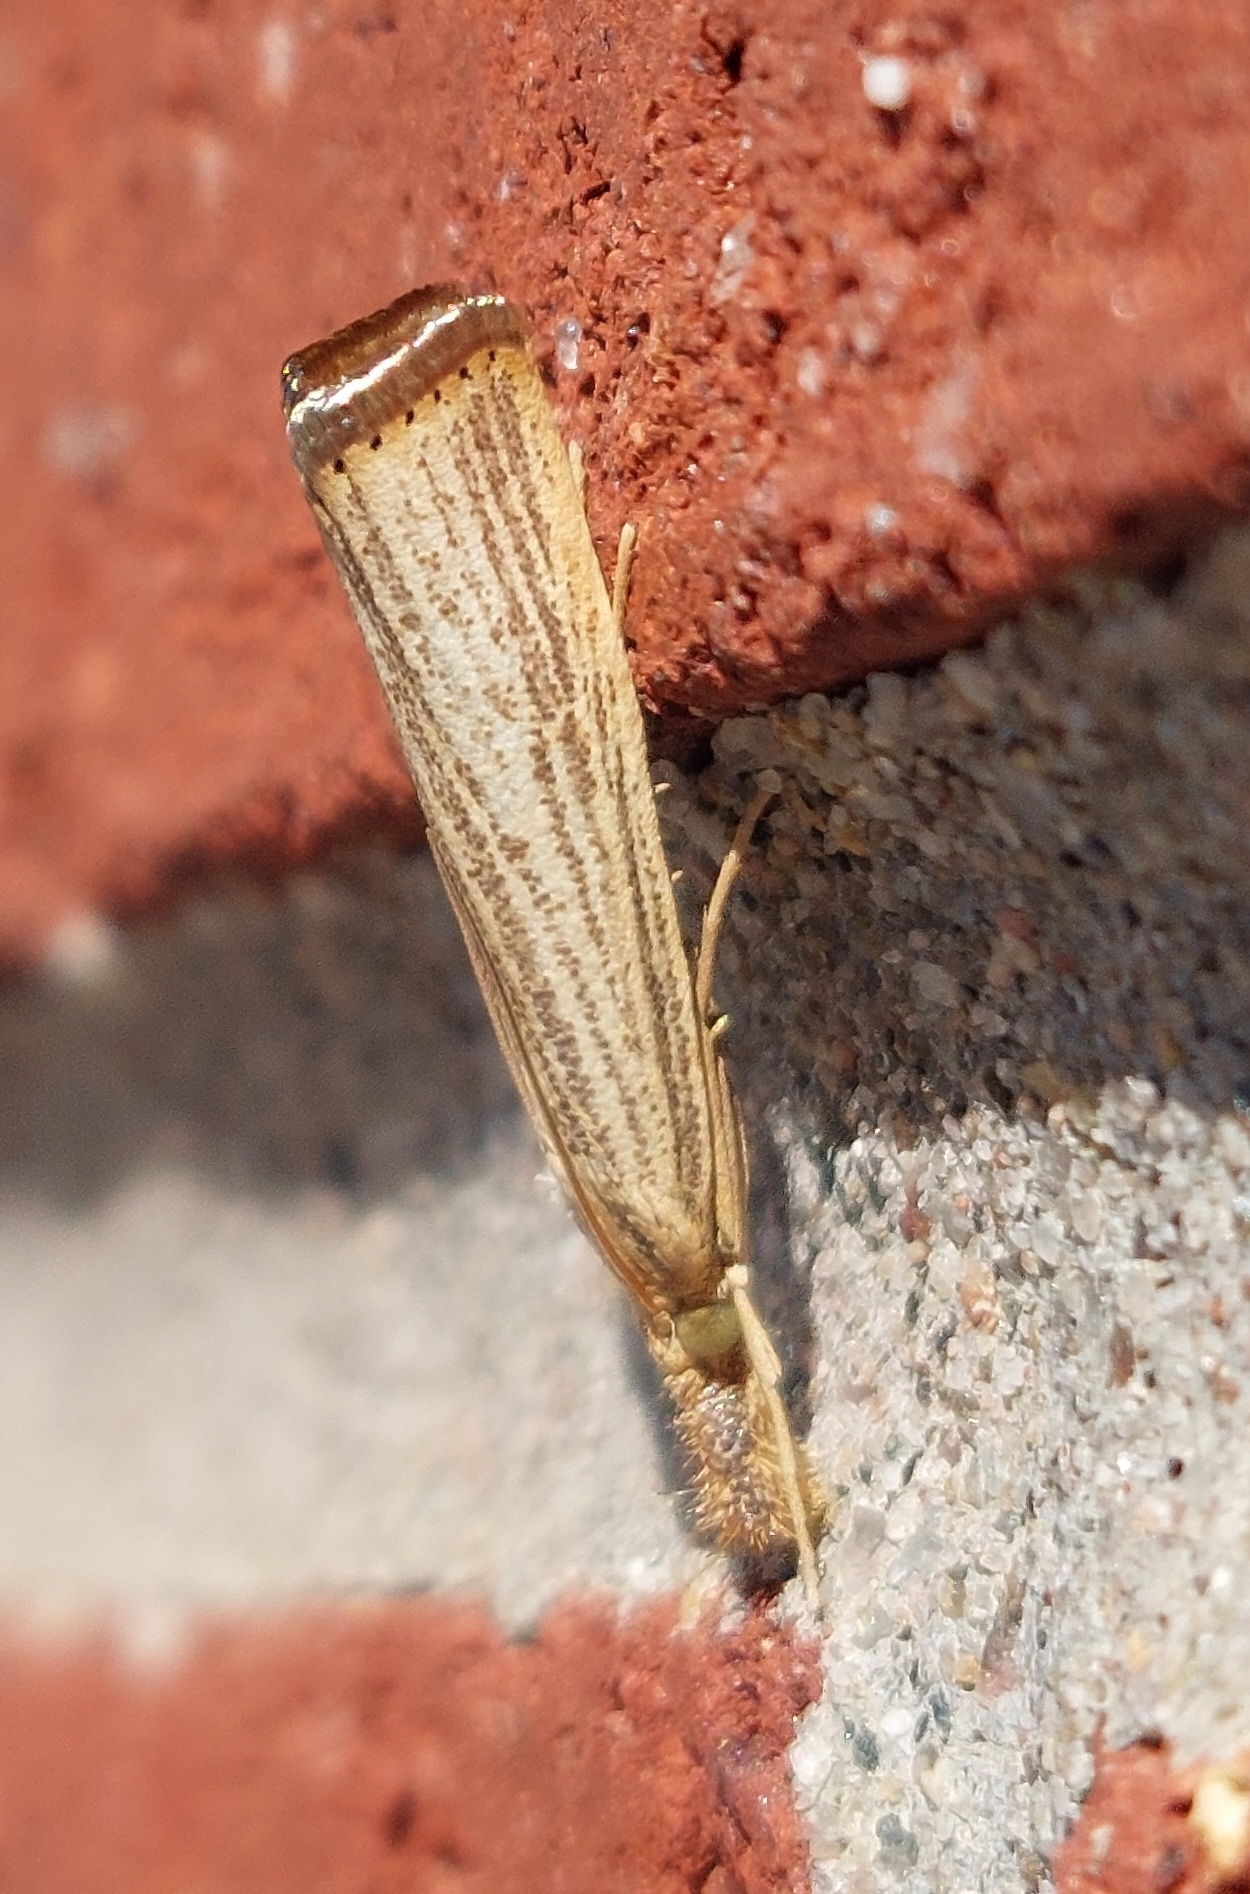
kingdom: Animalia
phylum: Arthropoda
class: Insecta
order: Lepidoptera
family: Crambidae
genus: Agriphila
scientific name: Agriphila vulgivagellus
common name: Vagabond crambus moth
